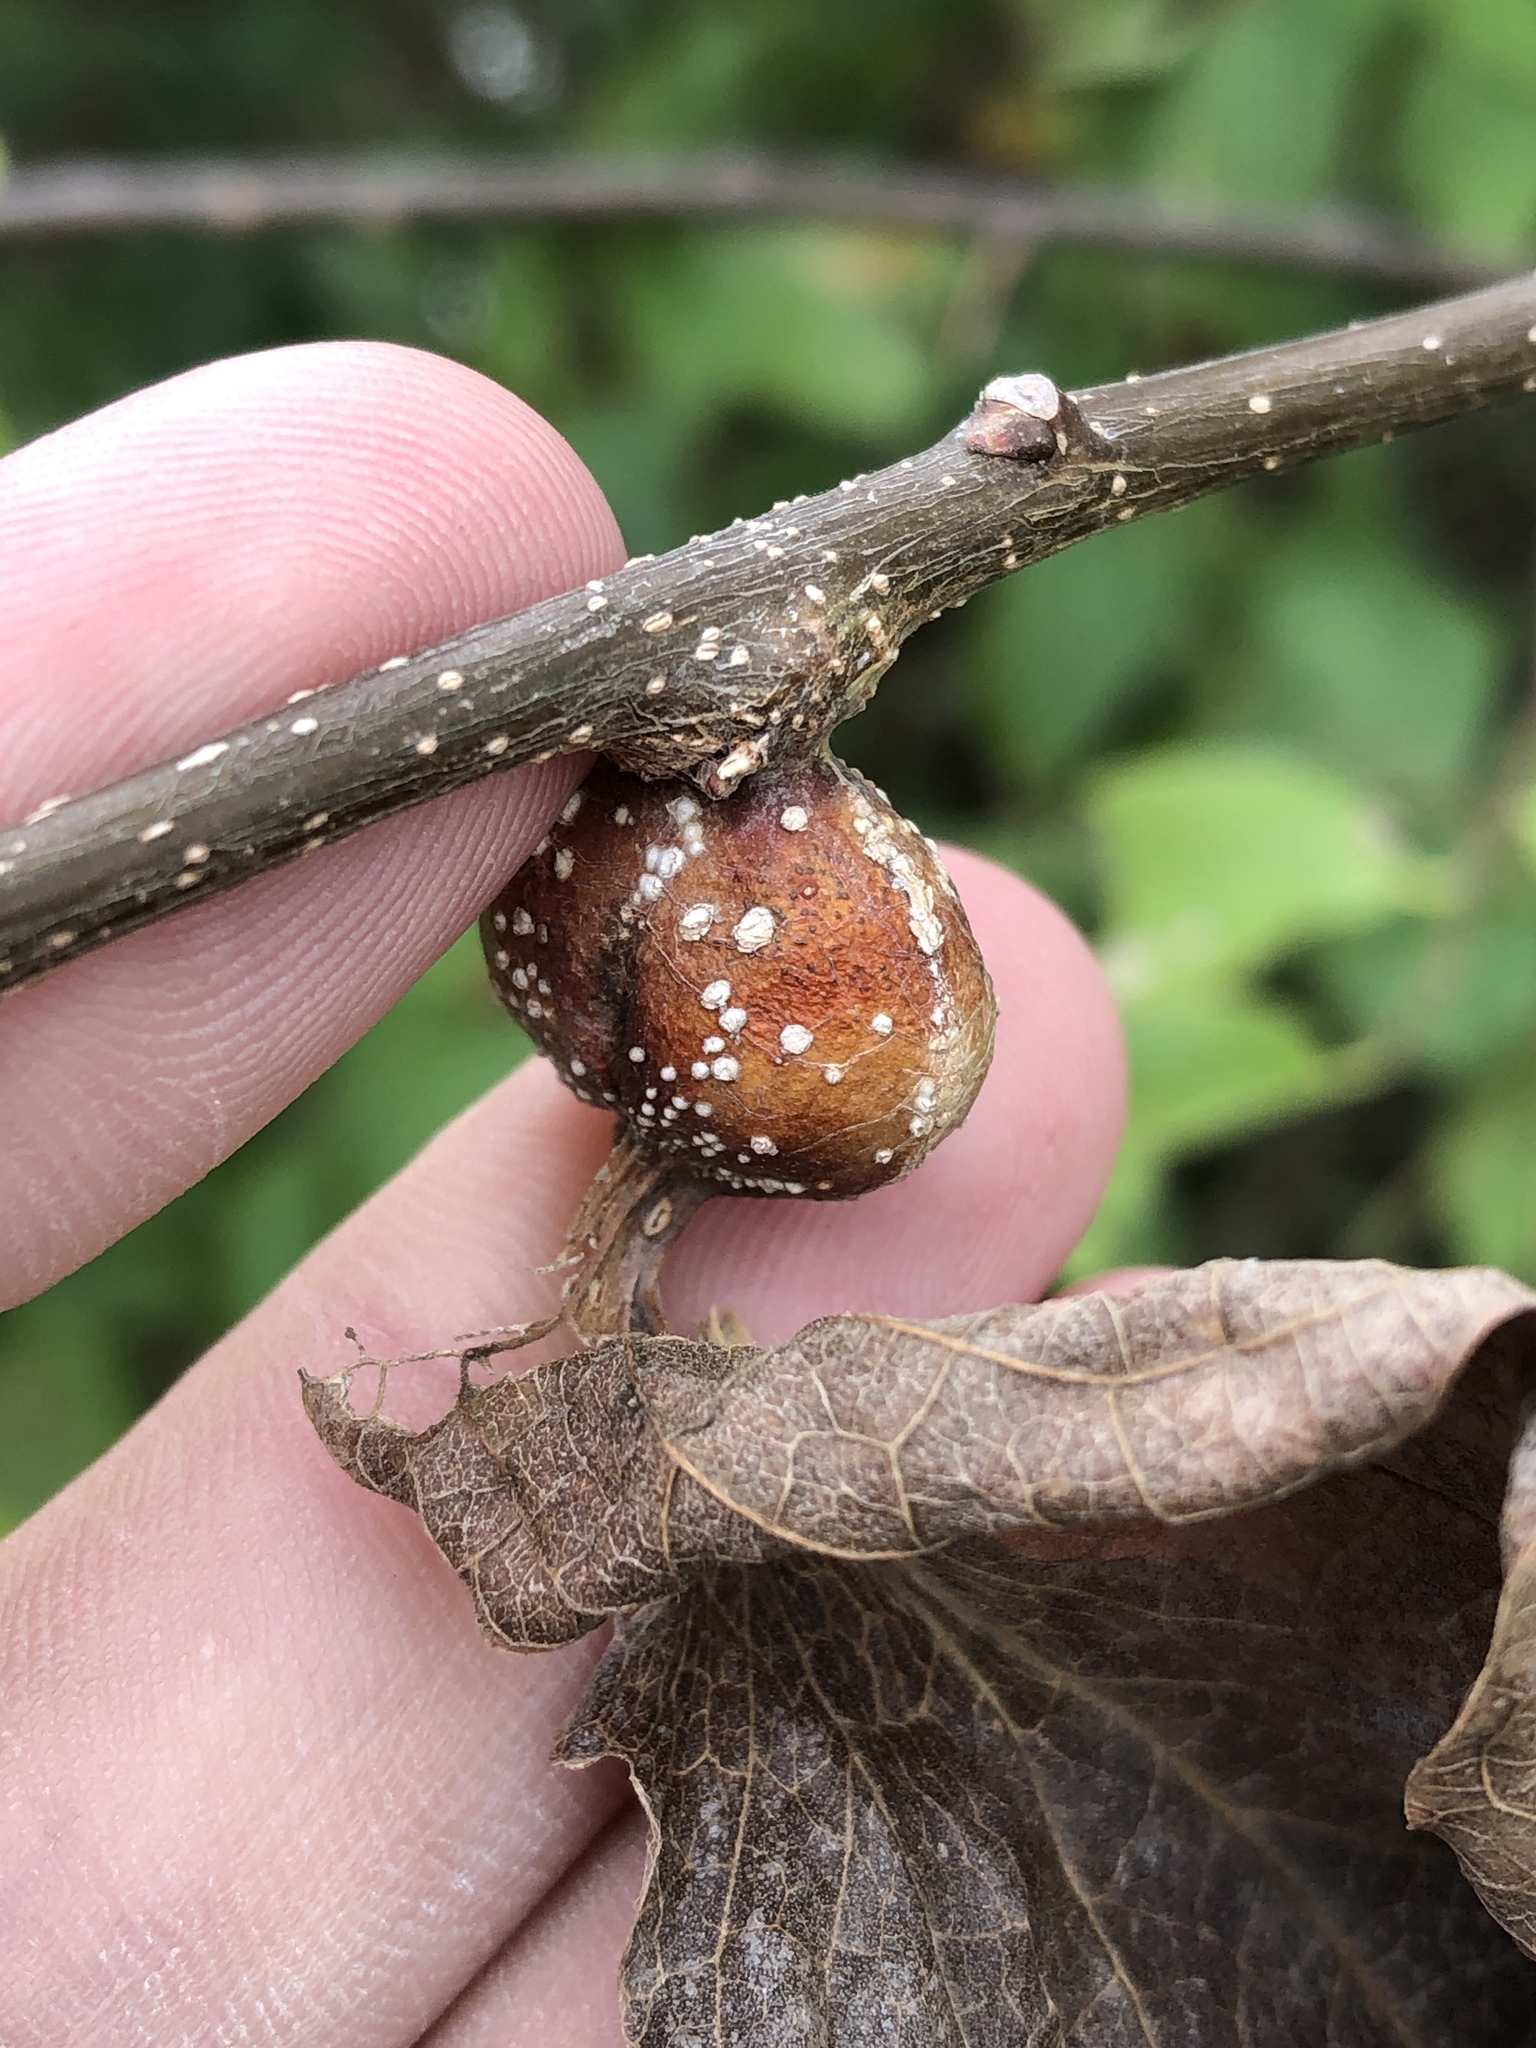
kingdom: Animalia
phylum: Arthropoda
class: Insecta
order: Hemiptera
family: Aphalaridae
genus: Pachypsylla
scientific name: Pachypsylla venusta
